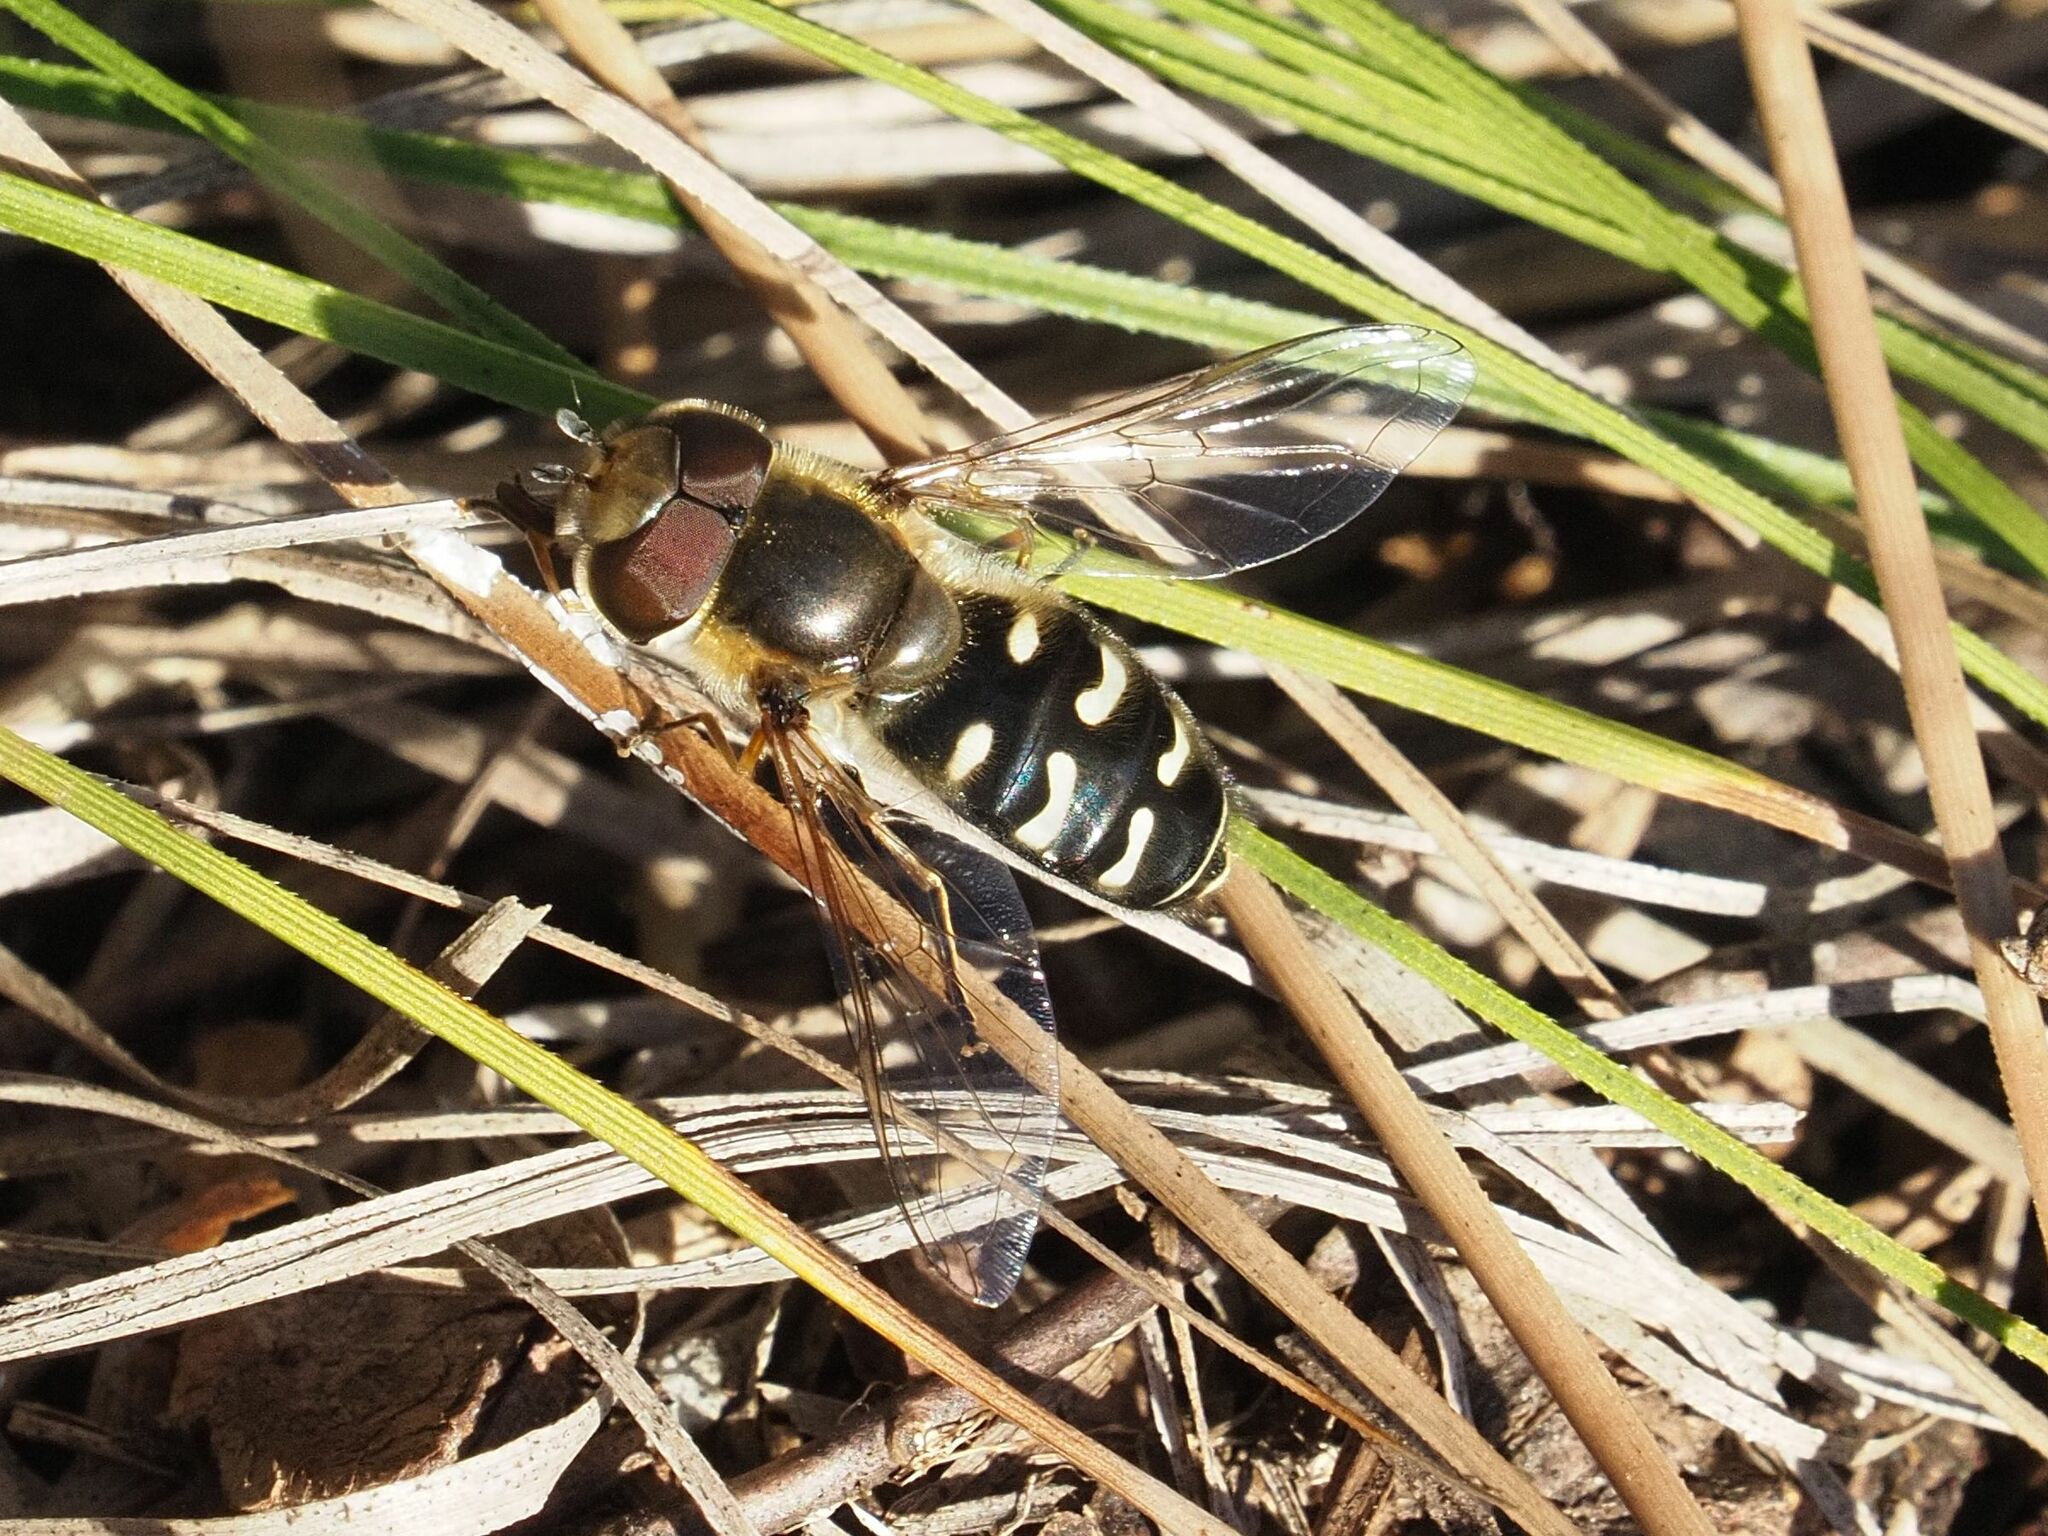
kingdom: Animalia
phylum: Arthropoda
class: Insecta
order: Diptera
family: Syrphidae
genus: Scaeva
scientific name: Scaeva pyrastri
